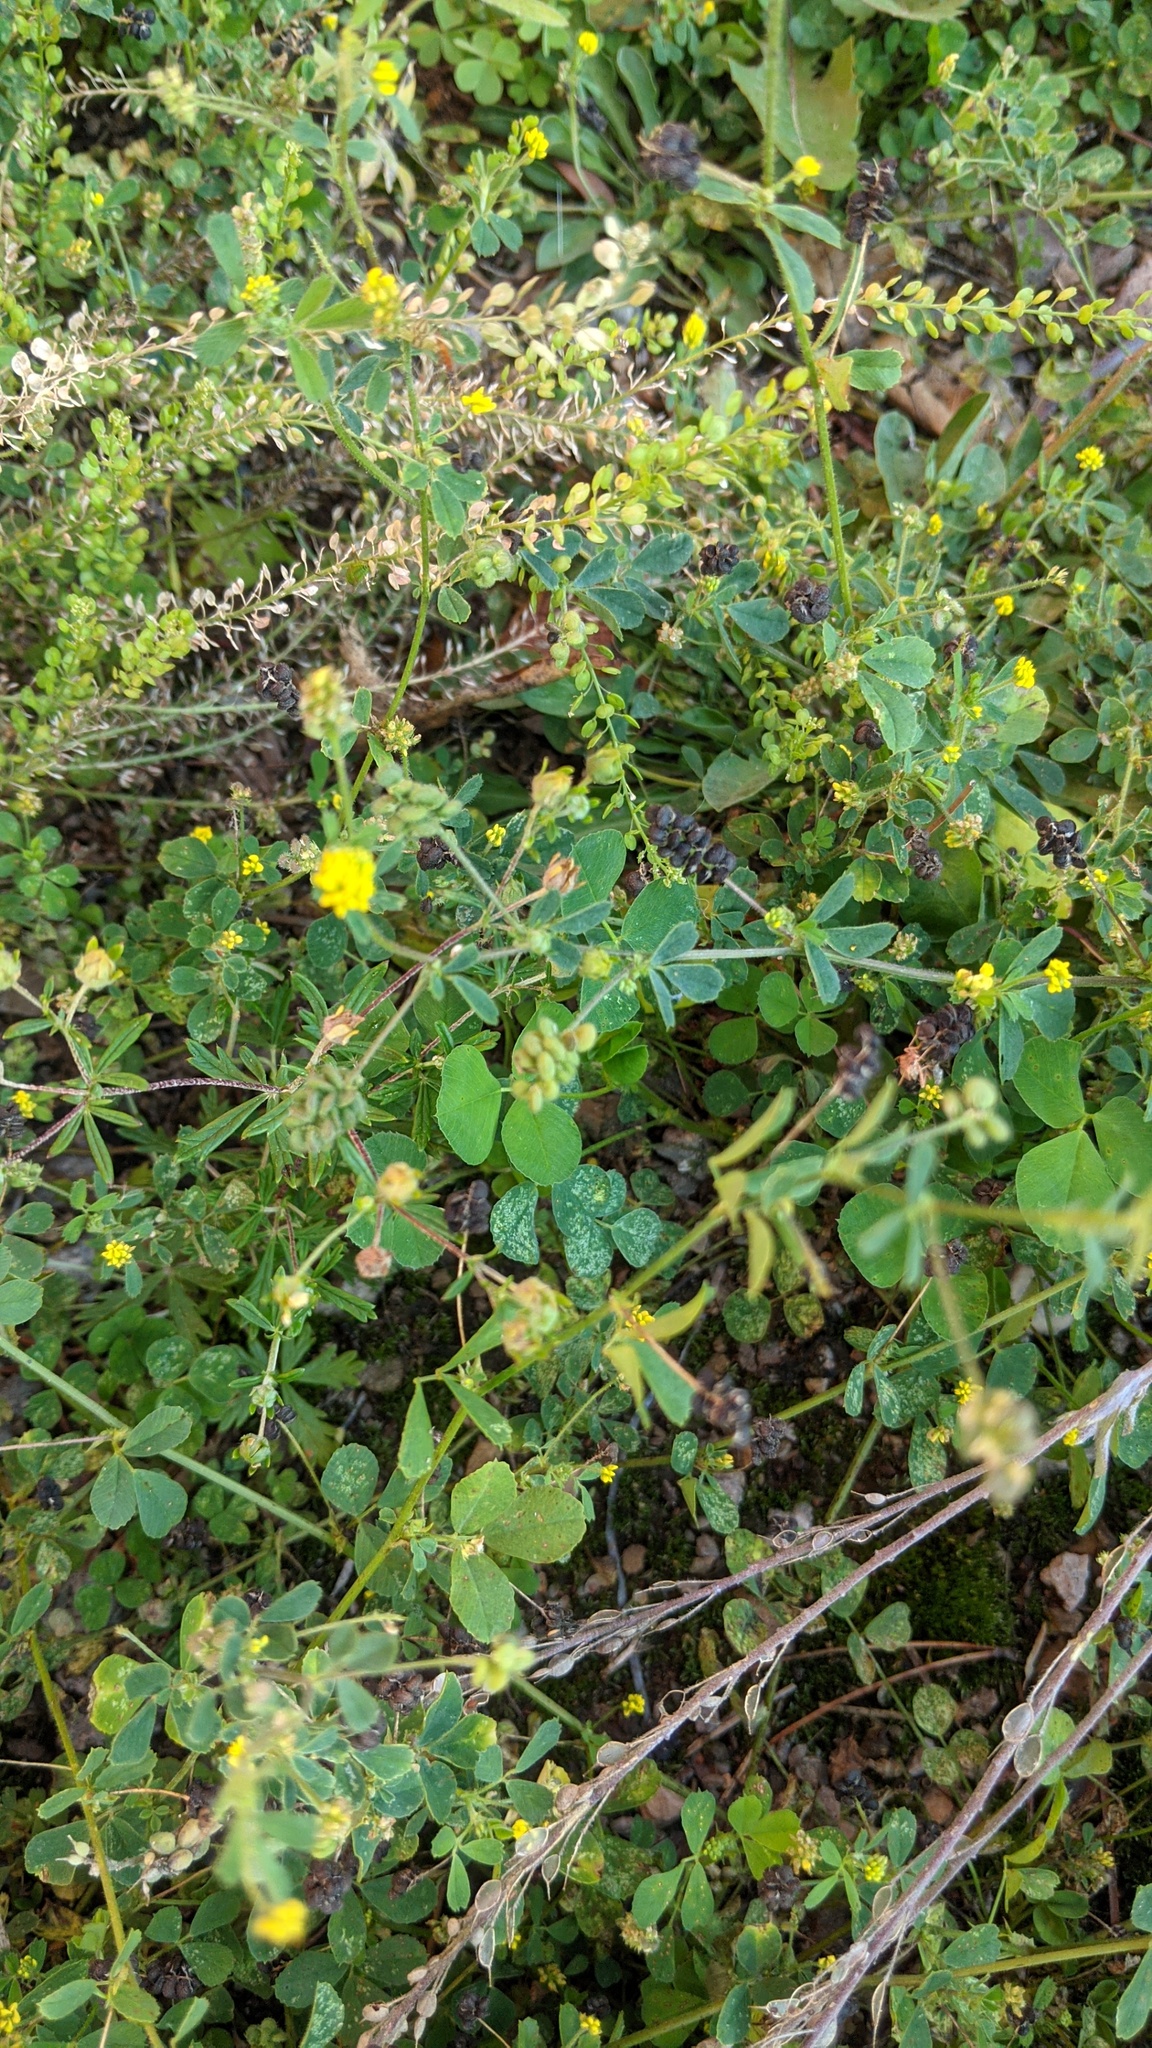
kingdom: Plantae
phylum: Tracheophyta
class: Magnoliopsida
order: Fabales
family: Fabaceae
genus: Medicago
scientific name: Medicago lupulina
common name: Black medick
